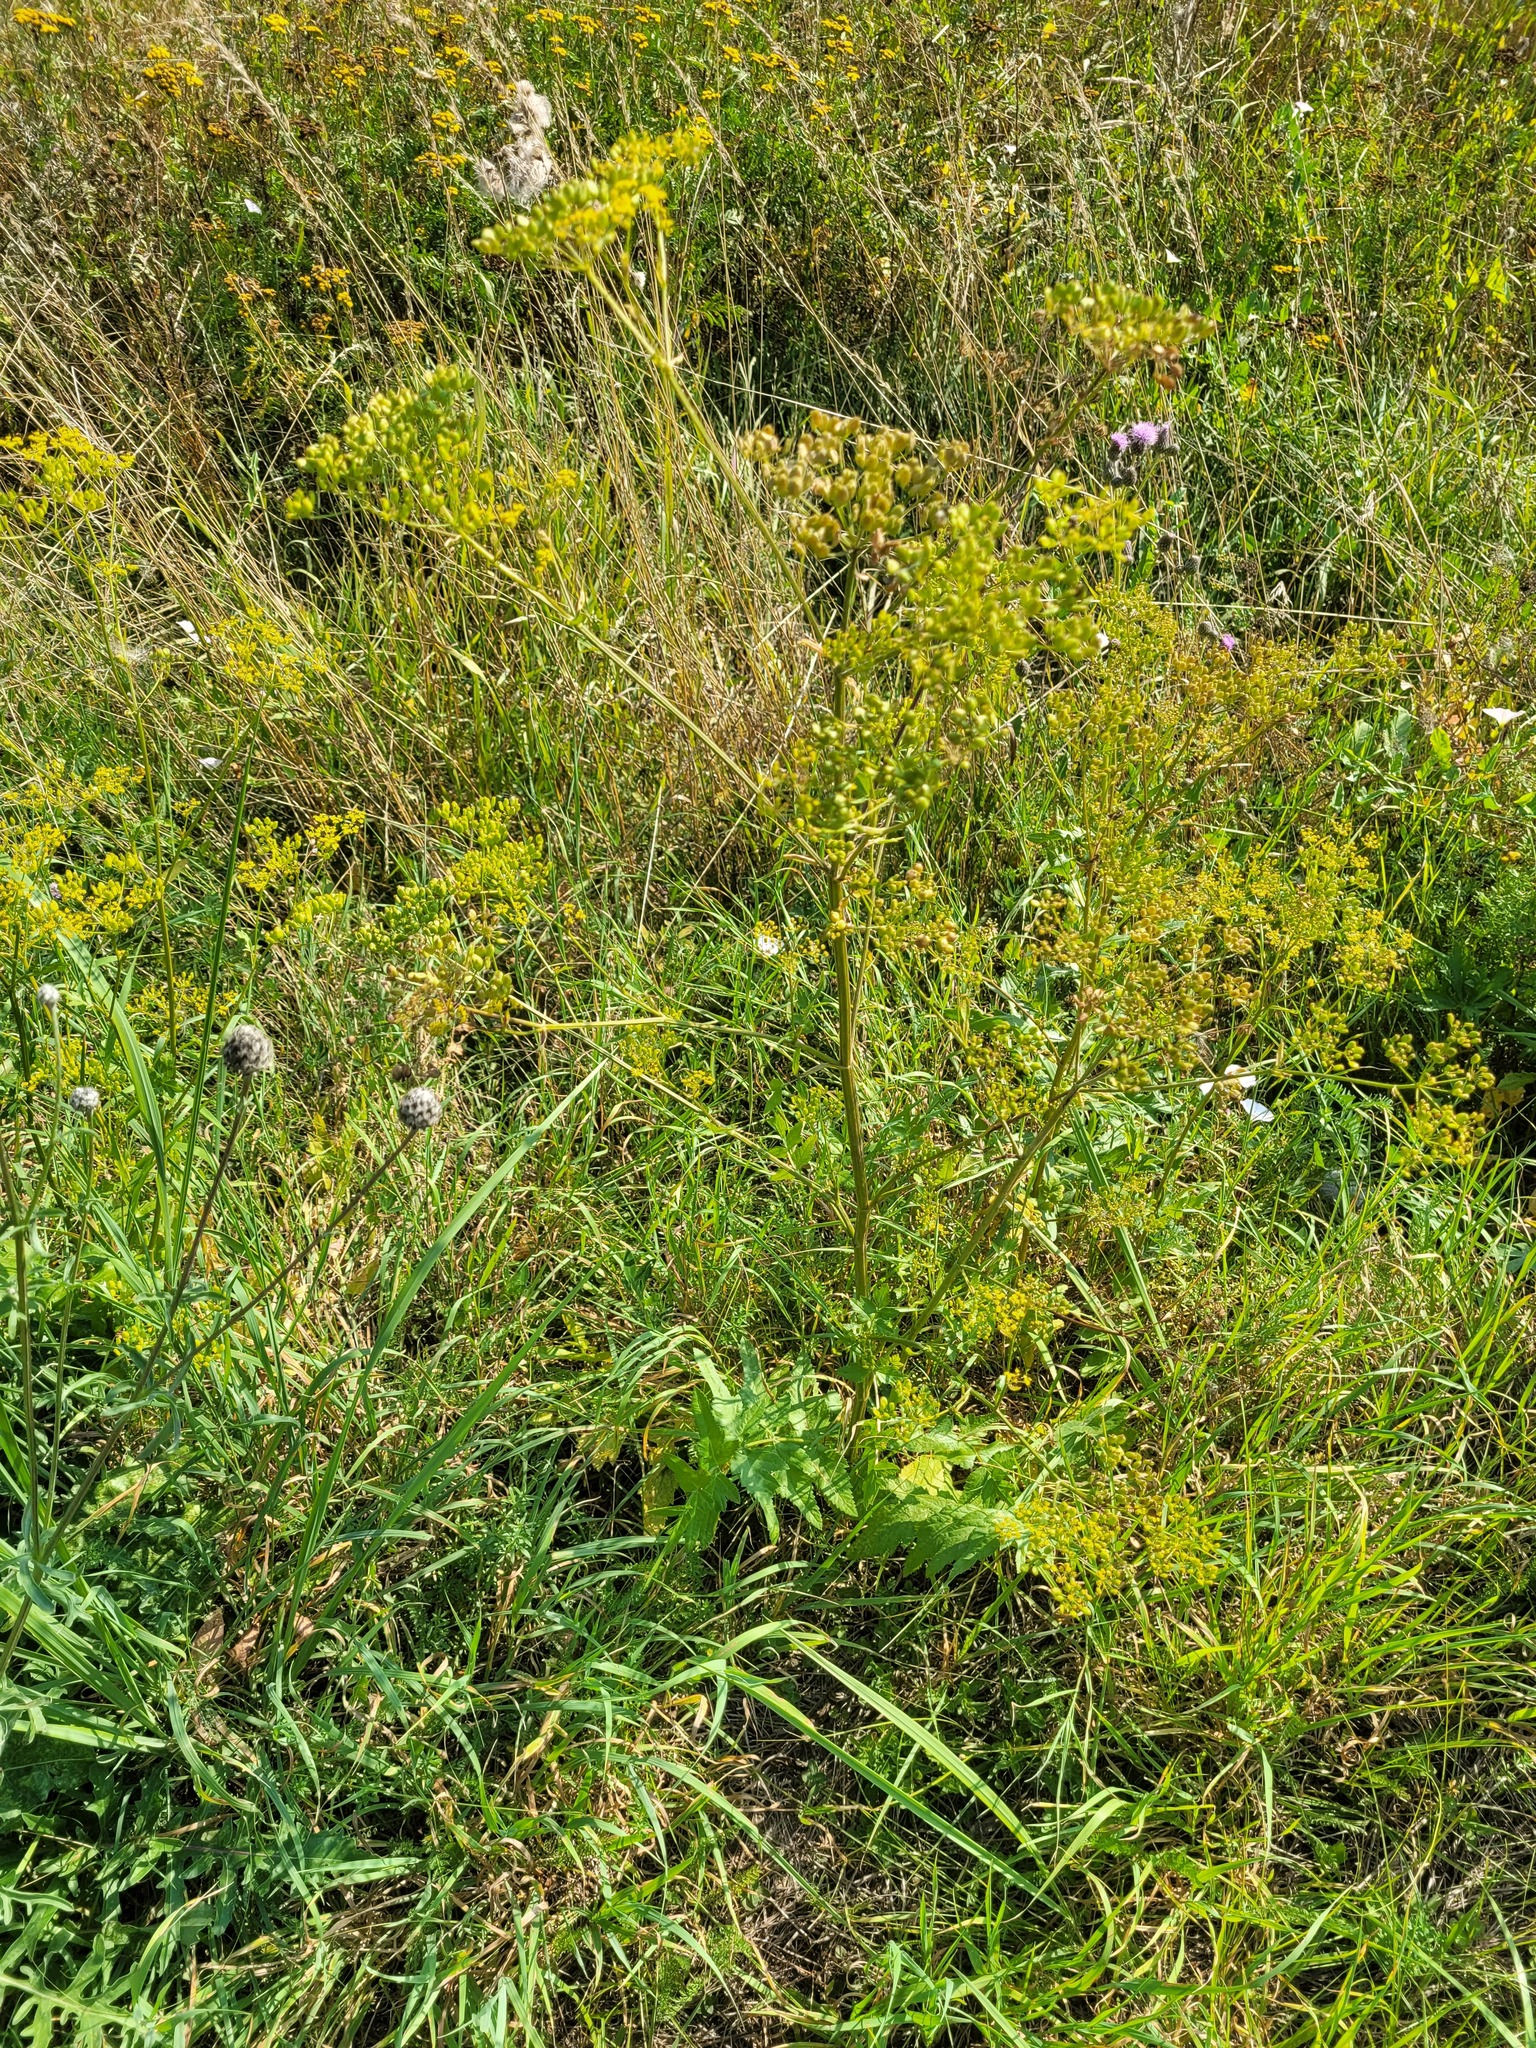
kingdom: Plantae
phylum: Tracheophyta
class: Magnoliopsida
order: Apiales
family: Apiaceae
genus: Pastinaca
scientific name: Pastinaca sativa
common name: Wild parsnip
